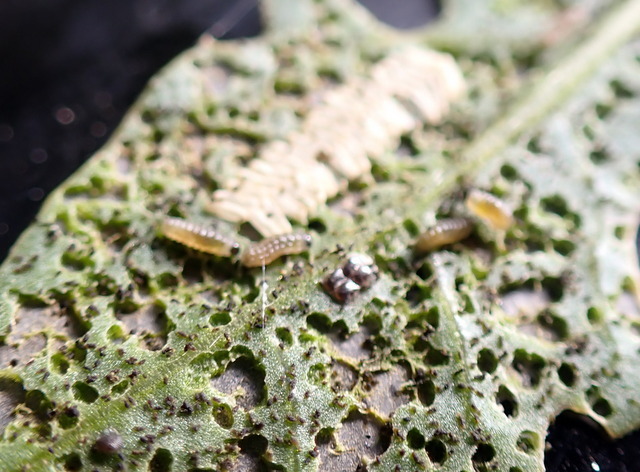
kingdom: Animalia
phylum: Arthropoda
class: Insecta
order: Coleoptera
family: Chrysomelidae
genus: Agasicles
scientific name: Agasicles hygrophila
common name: Alligatorweed flea beetle
